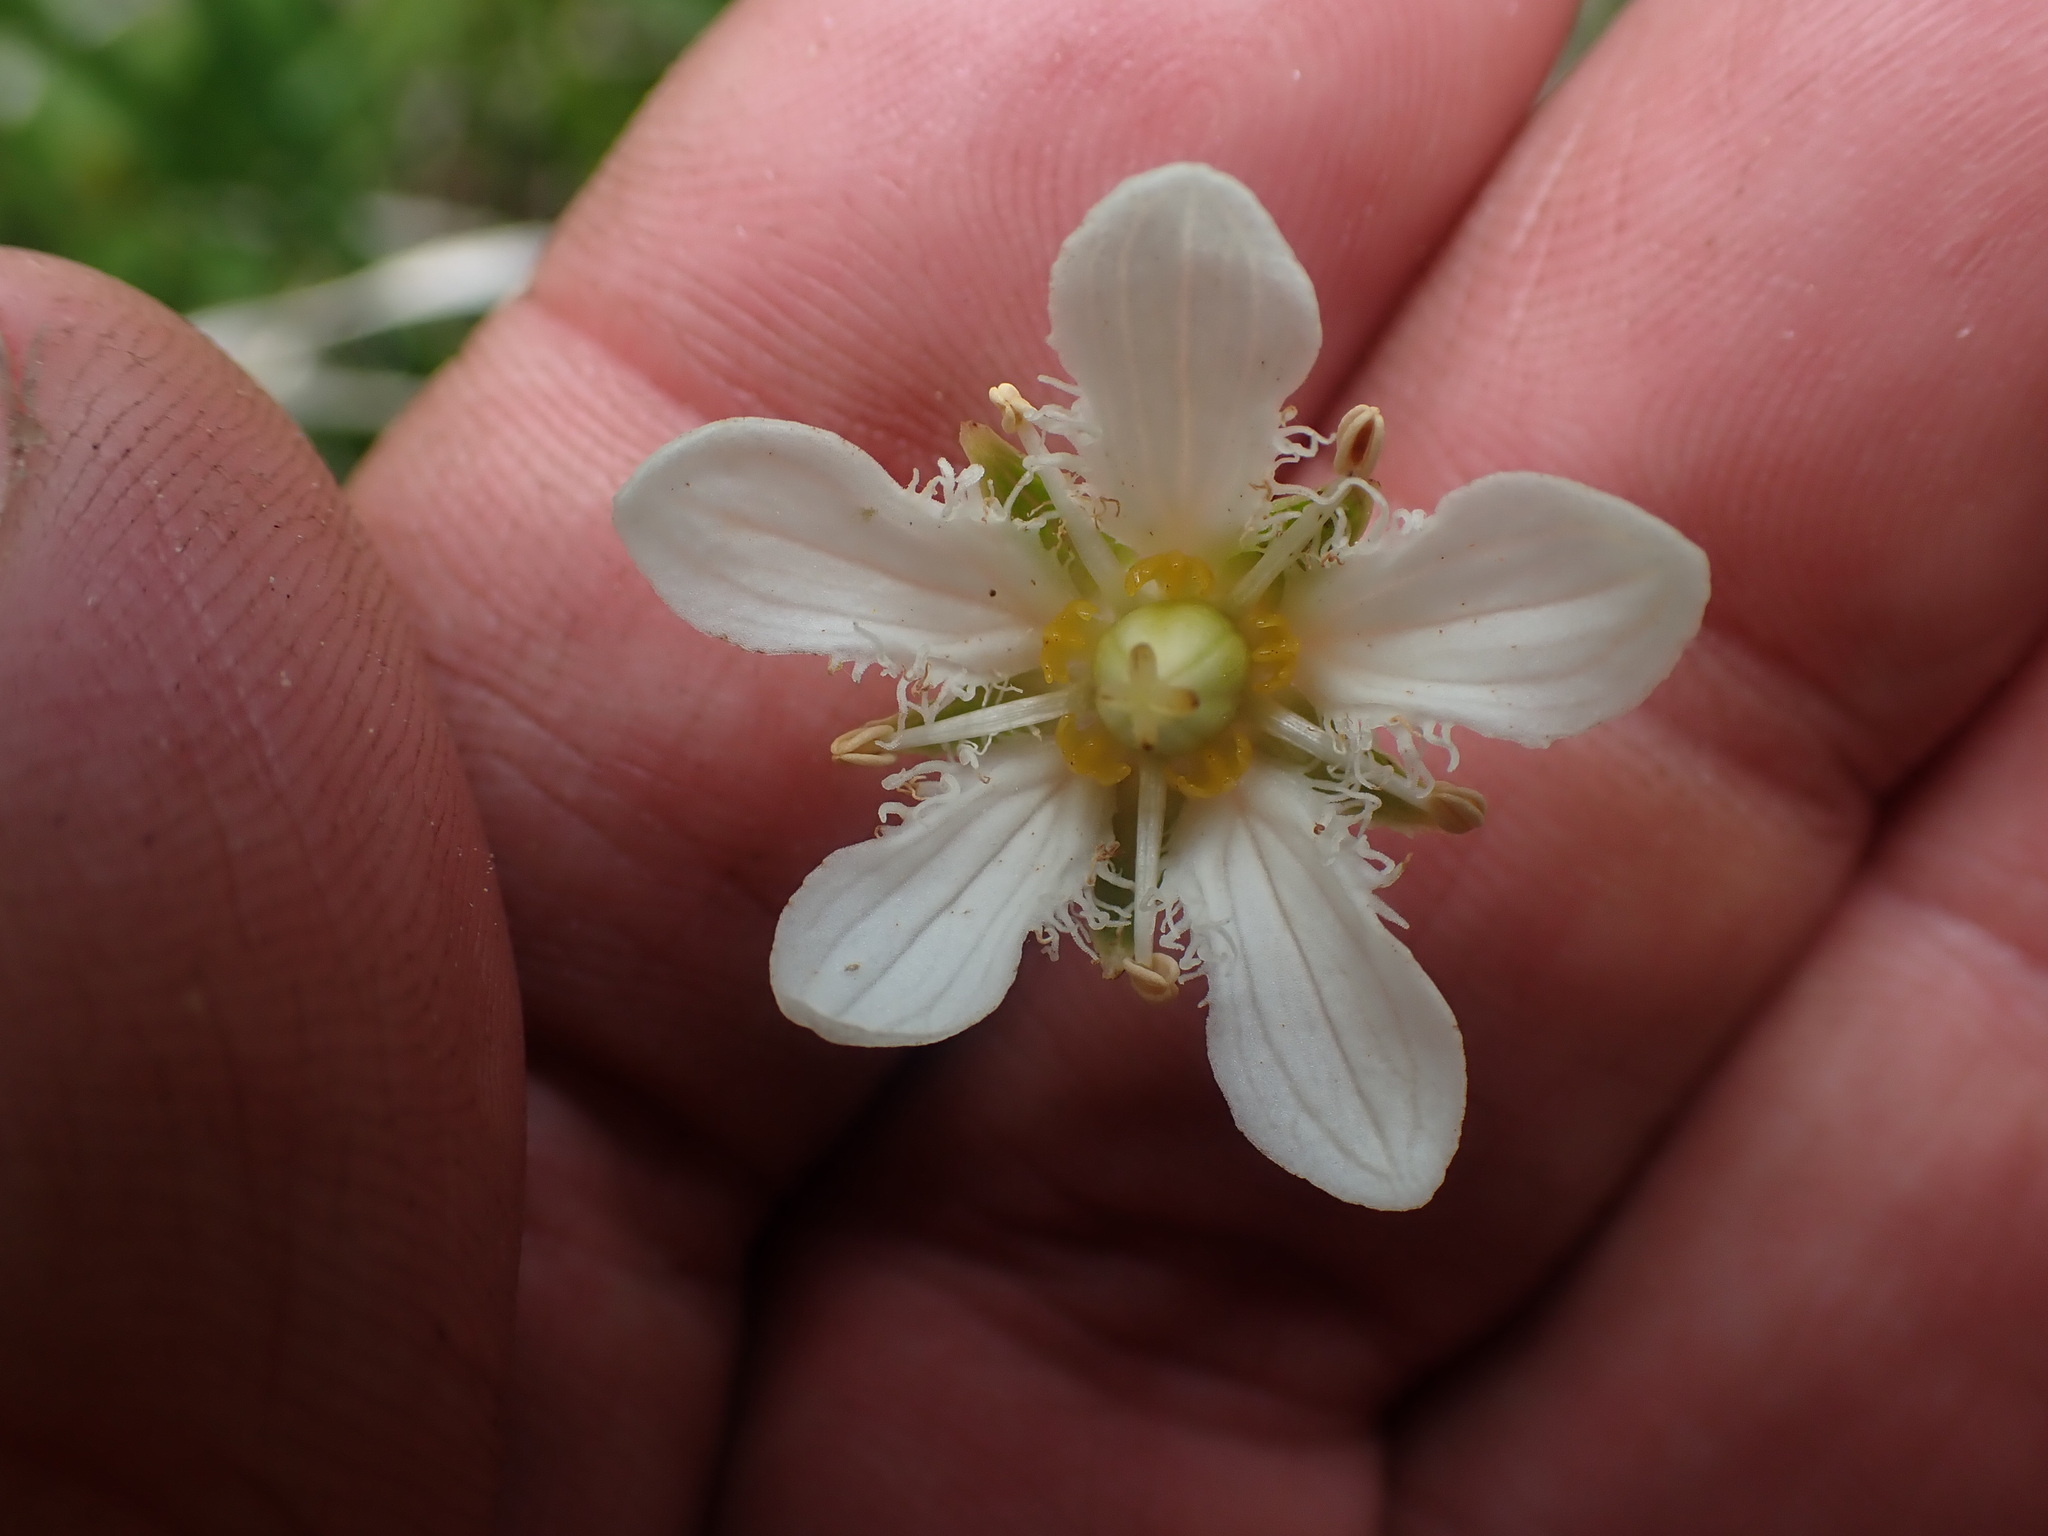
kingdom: Plantae
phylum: Tracheophyta
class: Magnoliopsida
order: Celastrales
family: Parnassiaceae
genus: Parnassia
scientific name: Parnassia fimbriata
